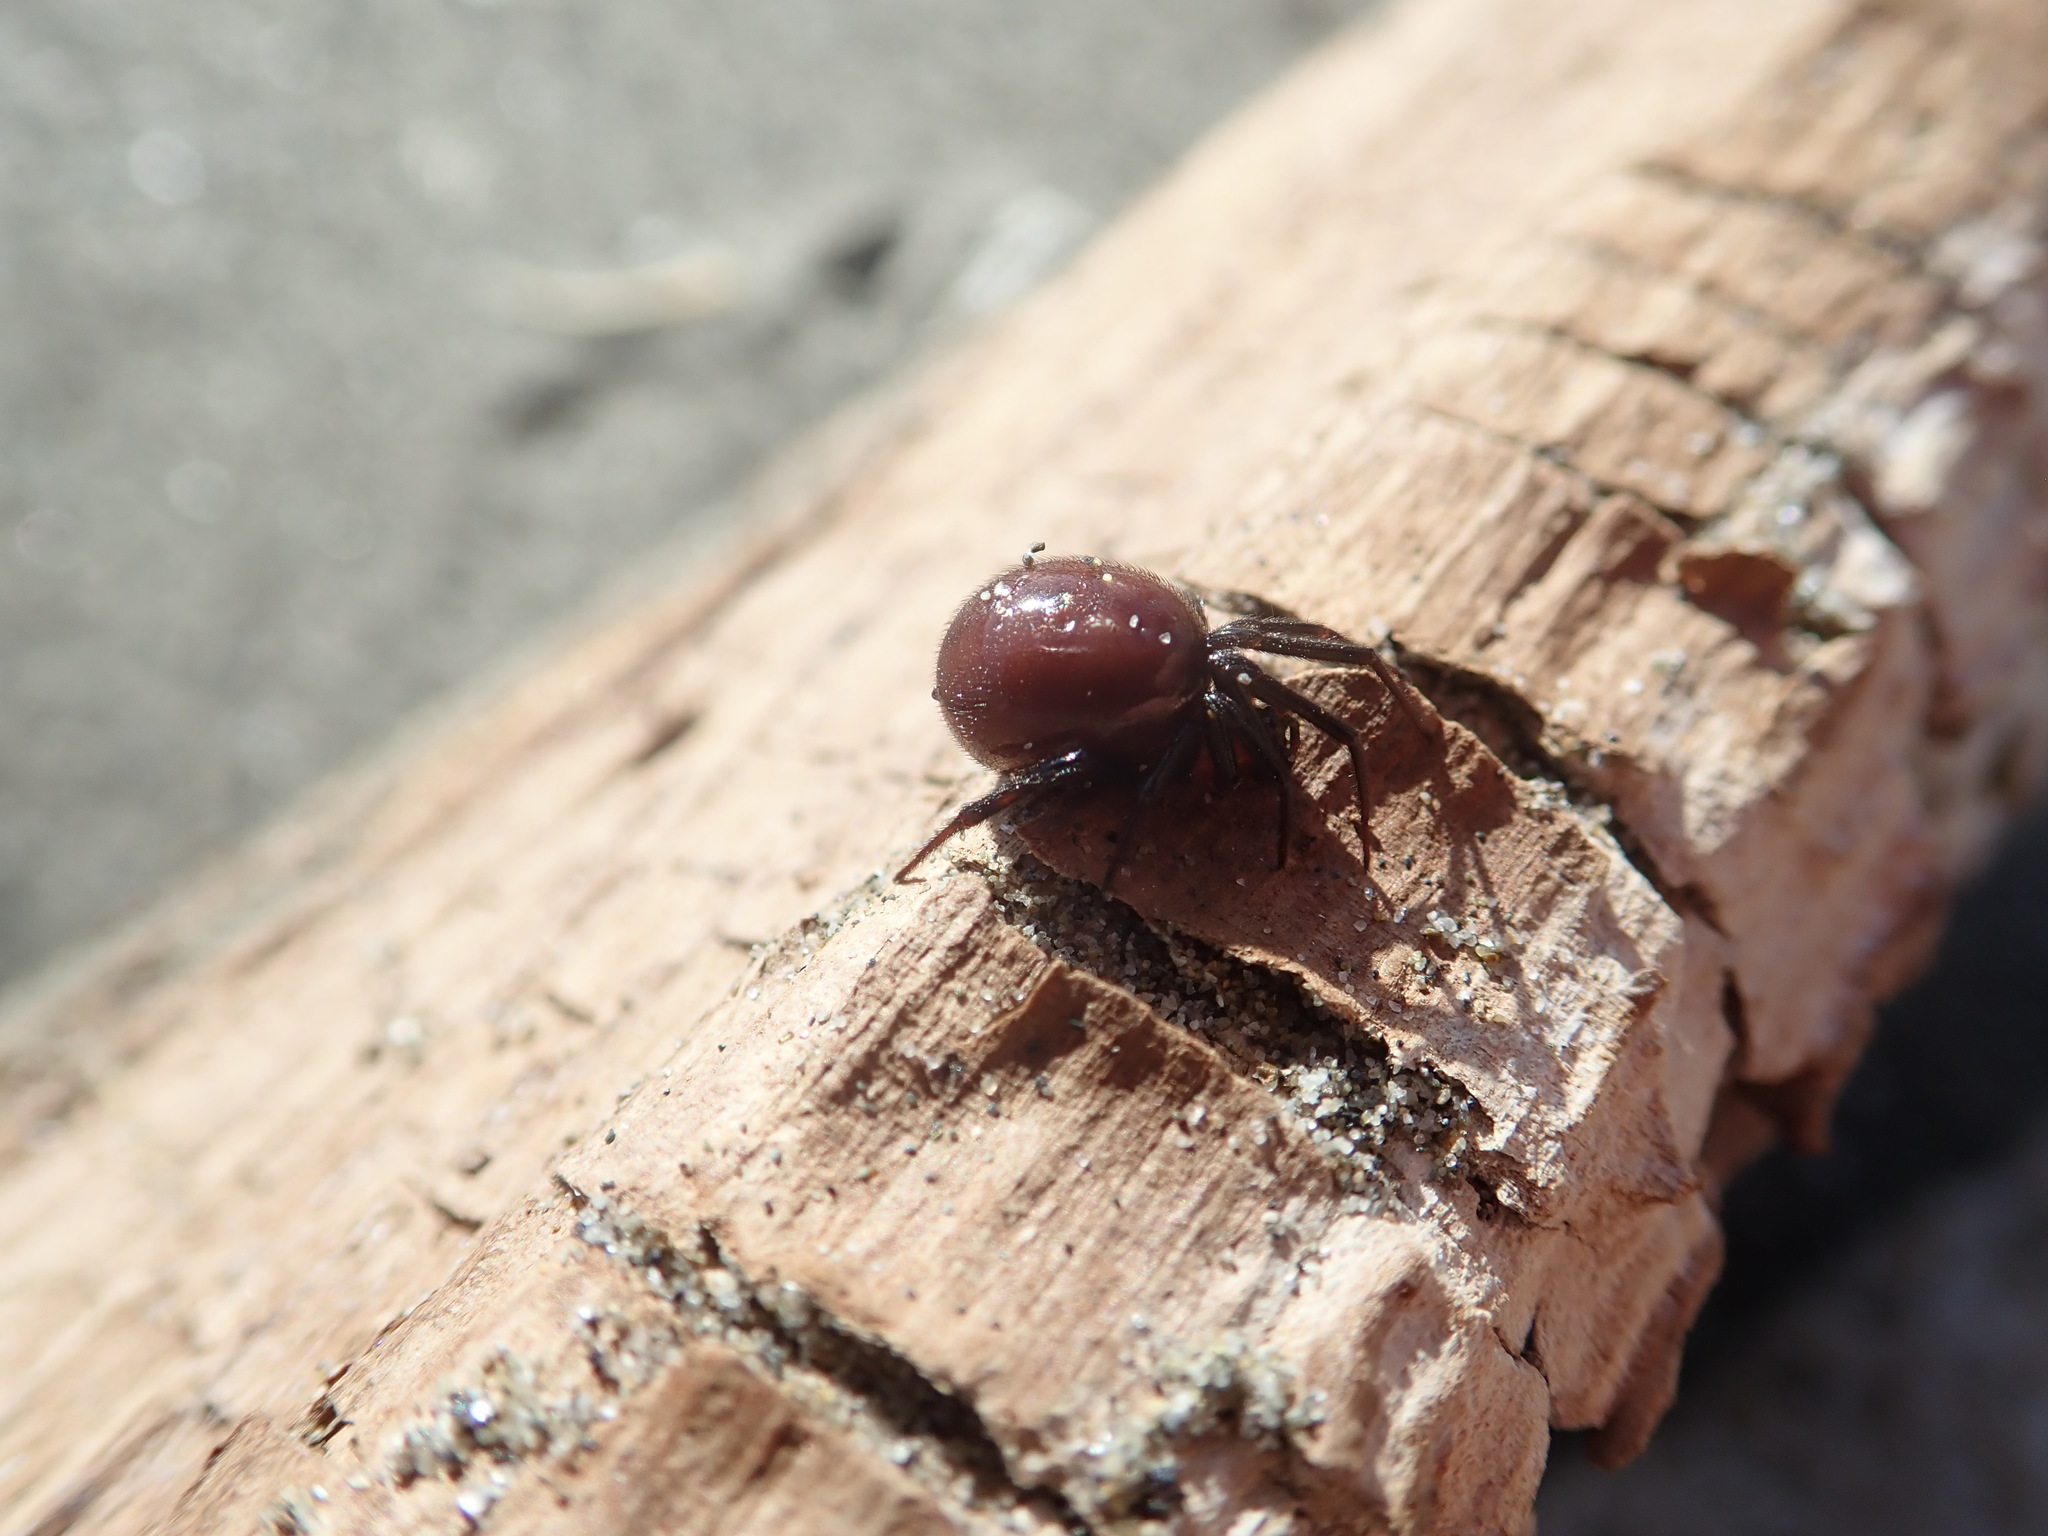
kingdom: Animalia
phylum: Arthropoda
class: Arachnida
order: Araneae
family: Theridiidae
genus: Steatoda
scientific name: Steatoda capensis
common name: Cobweb weaver
